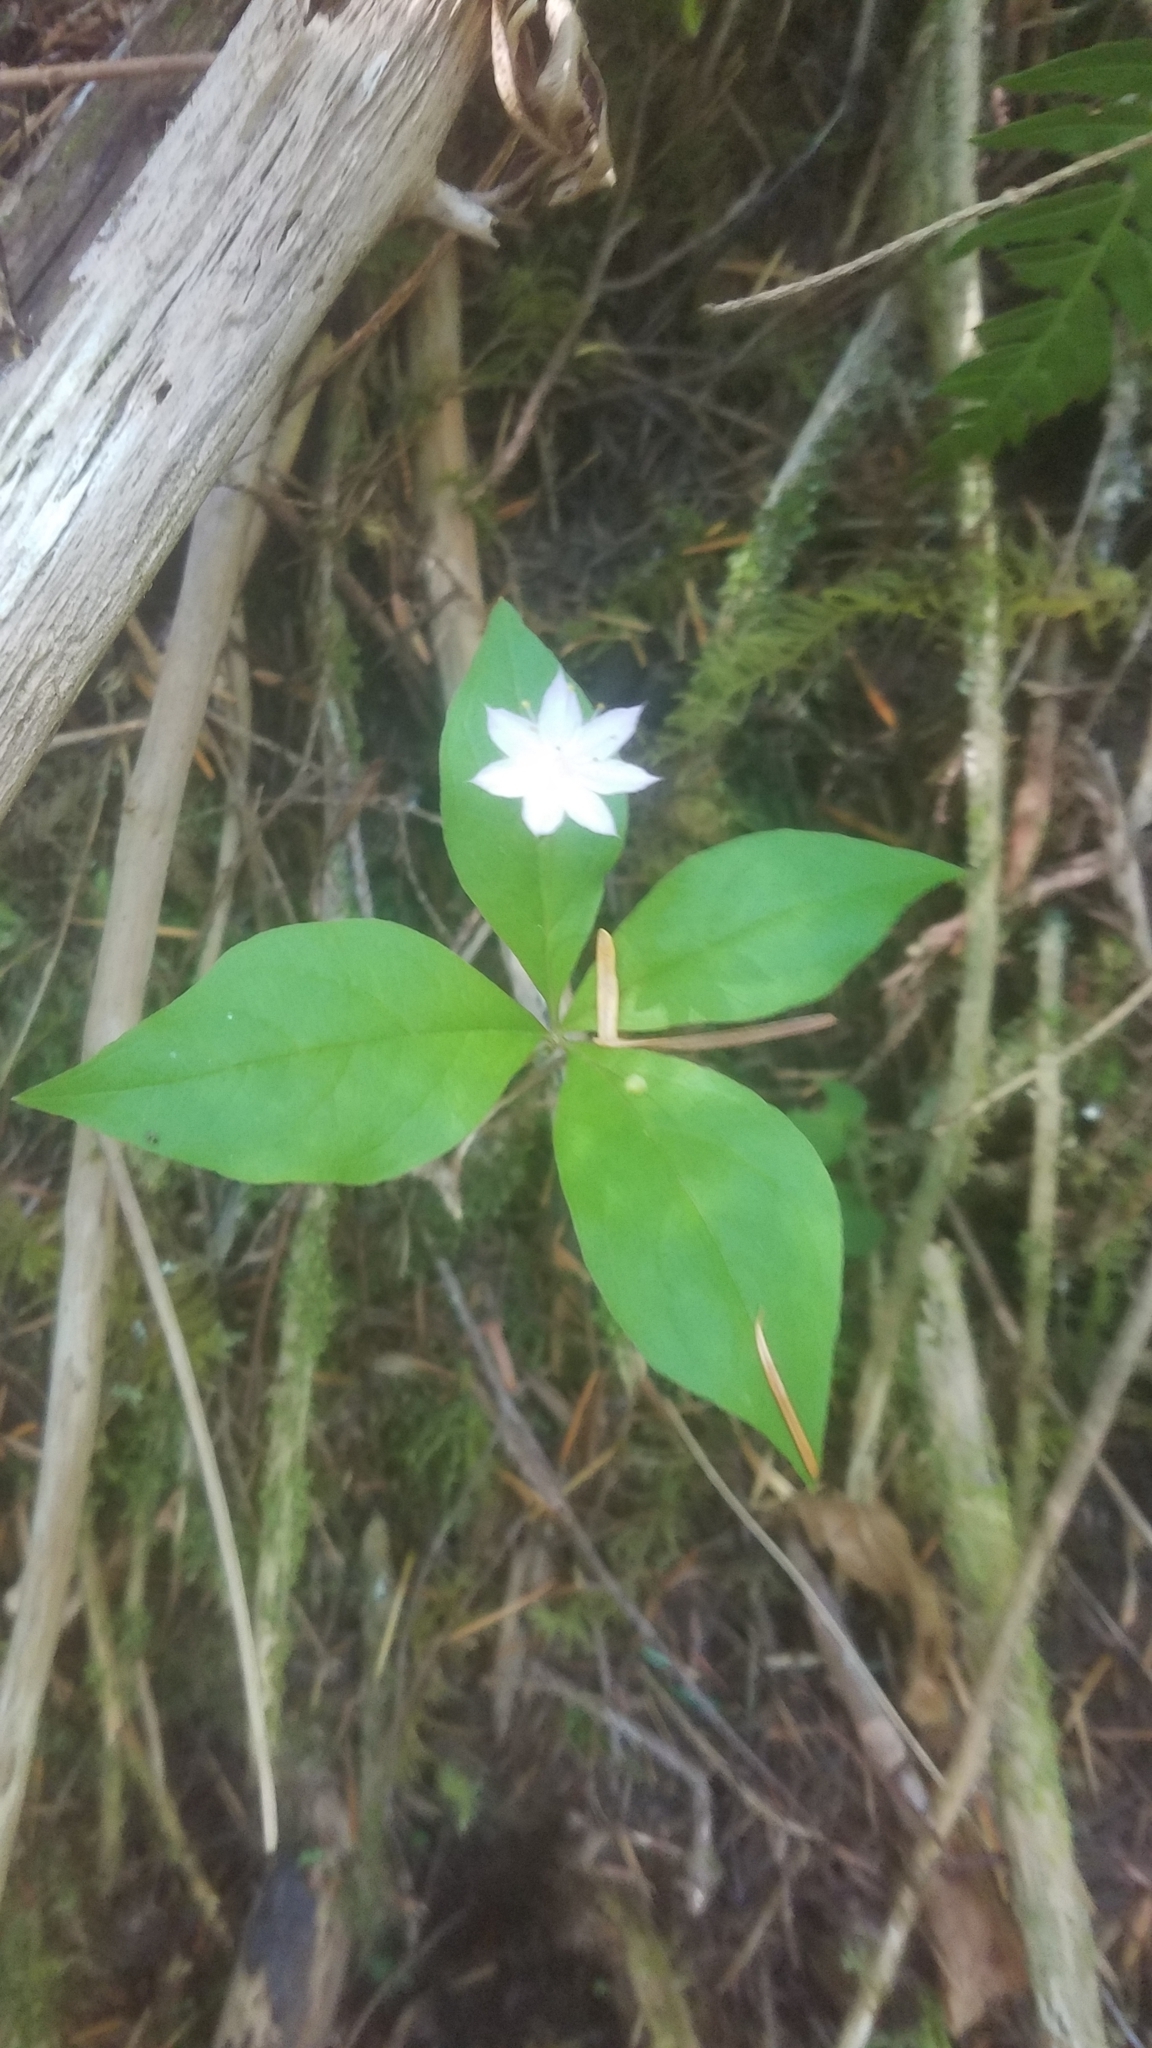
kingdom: Plantae
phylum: Tracheophyta
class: Magnoliopsida
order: Ericales
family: Primulaceae
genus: Lysimachia
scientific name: Lysimachia latifolia
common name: Pacific starflower
